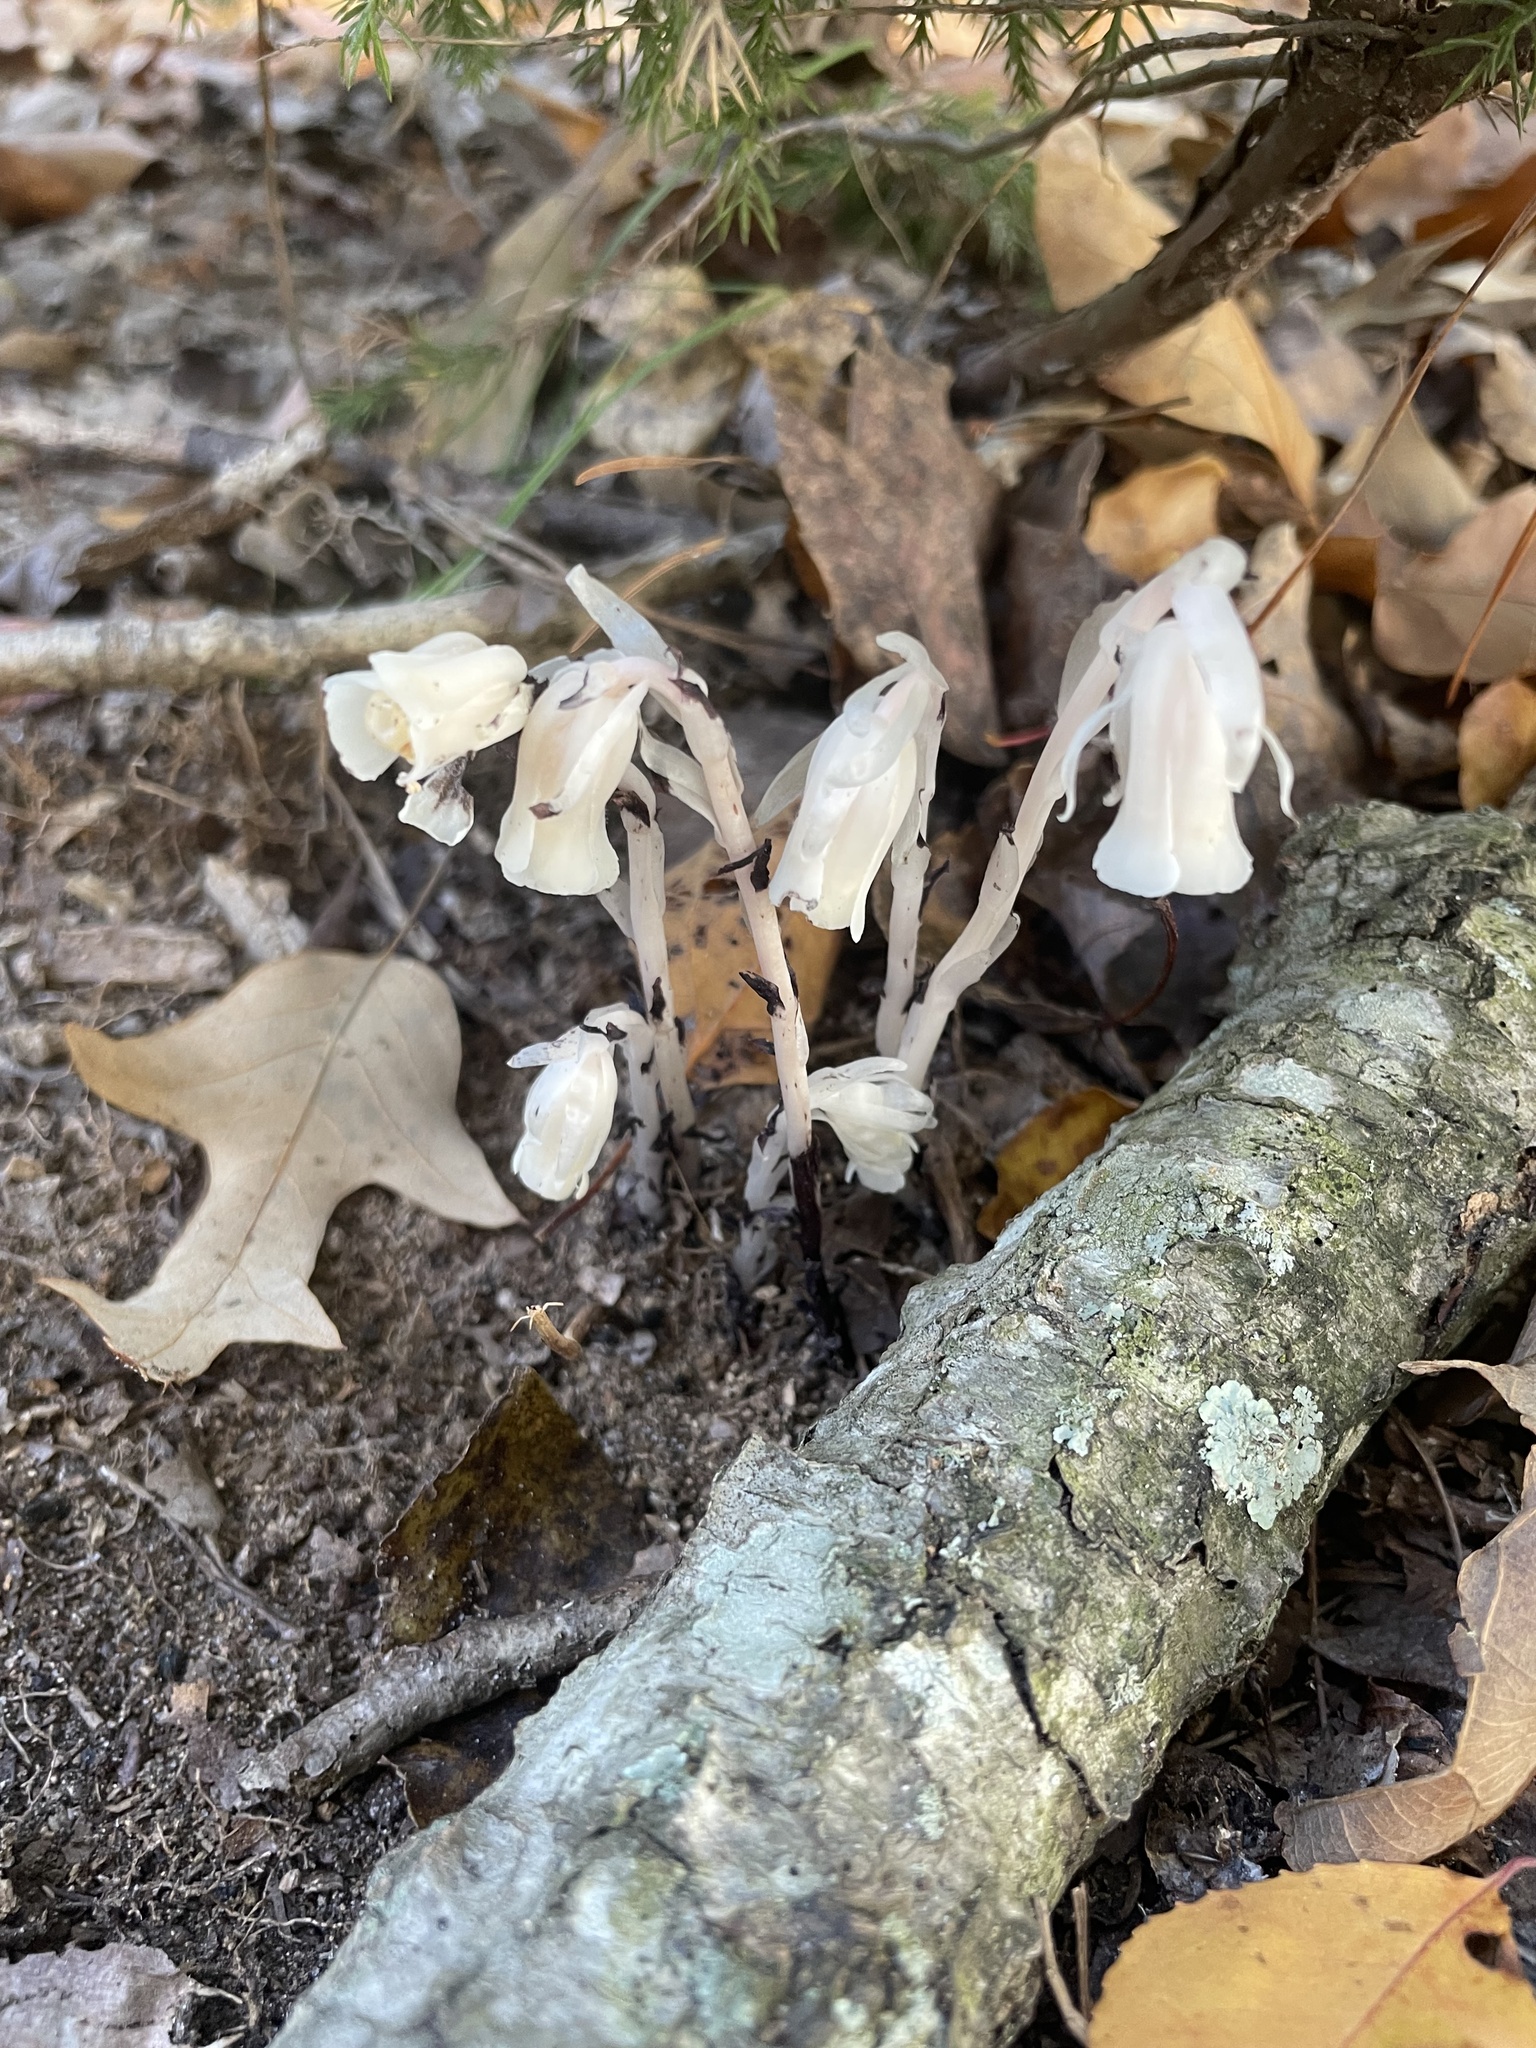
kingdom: Plantae
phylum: Tracheophyta
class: Magnoliopsida
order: Ericales
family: Ericaceae
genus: Monotropa
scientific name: Monotropa uniflora
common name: Convulsion root
